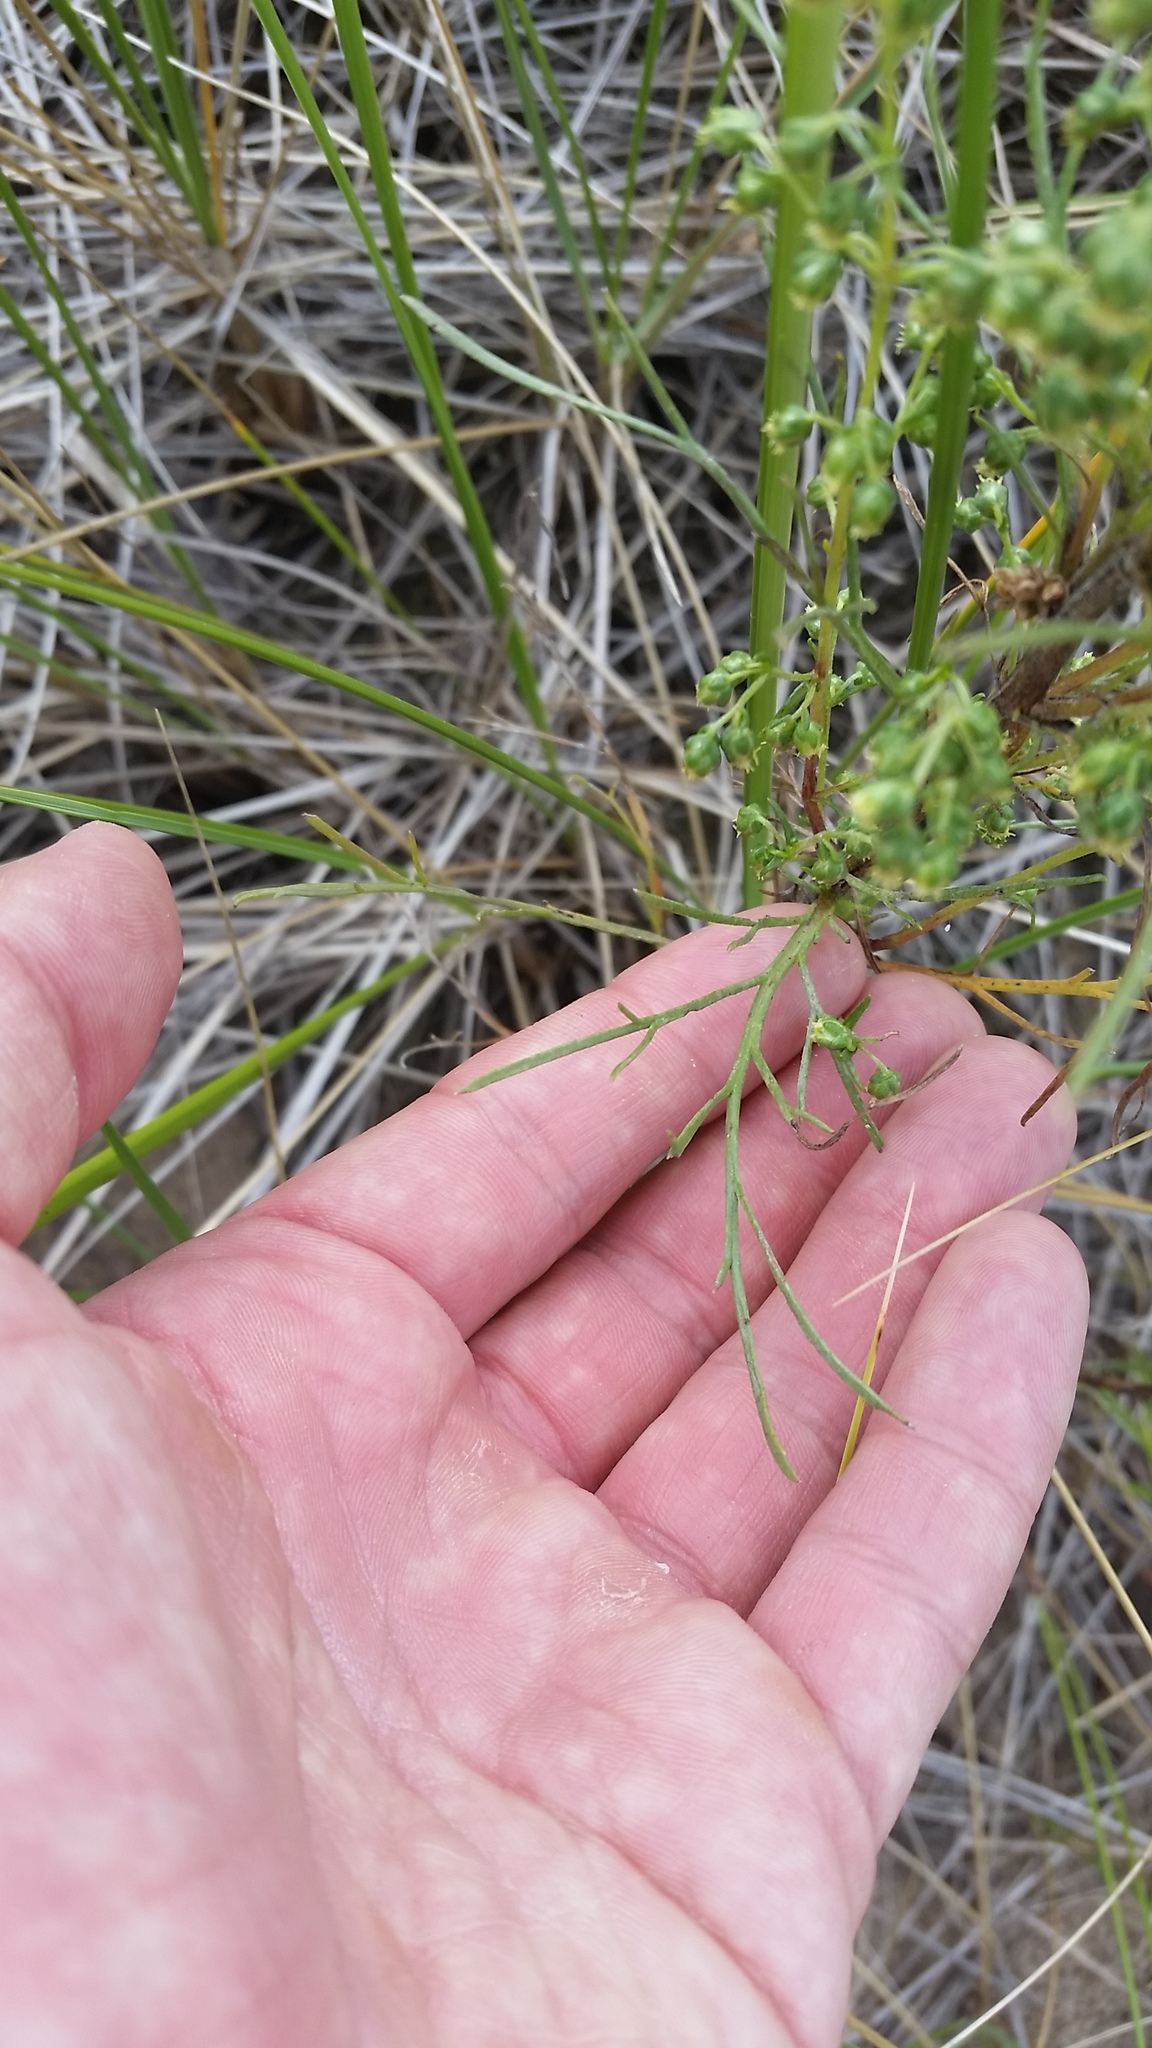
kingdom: Plantae
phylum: Tracheophyta
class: Magnoliopsida
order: Asterales
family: Asteraceae
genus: Artemisia
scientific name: Artemisia campestris
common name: Field wormwood
